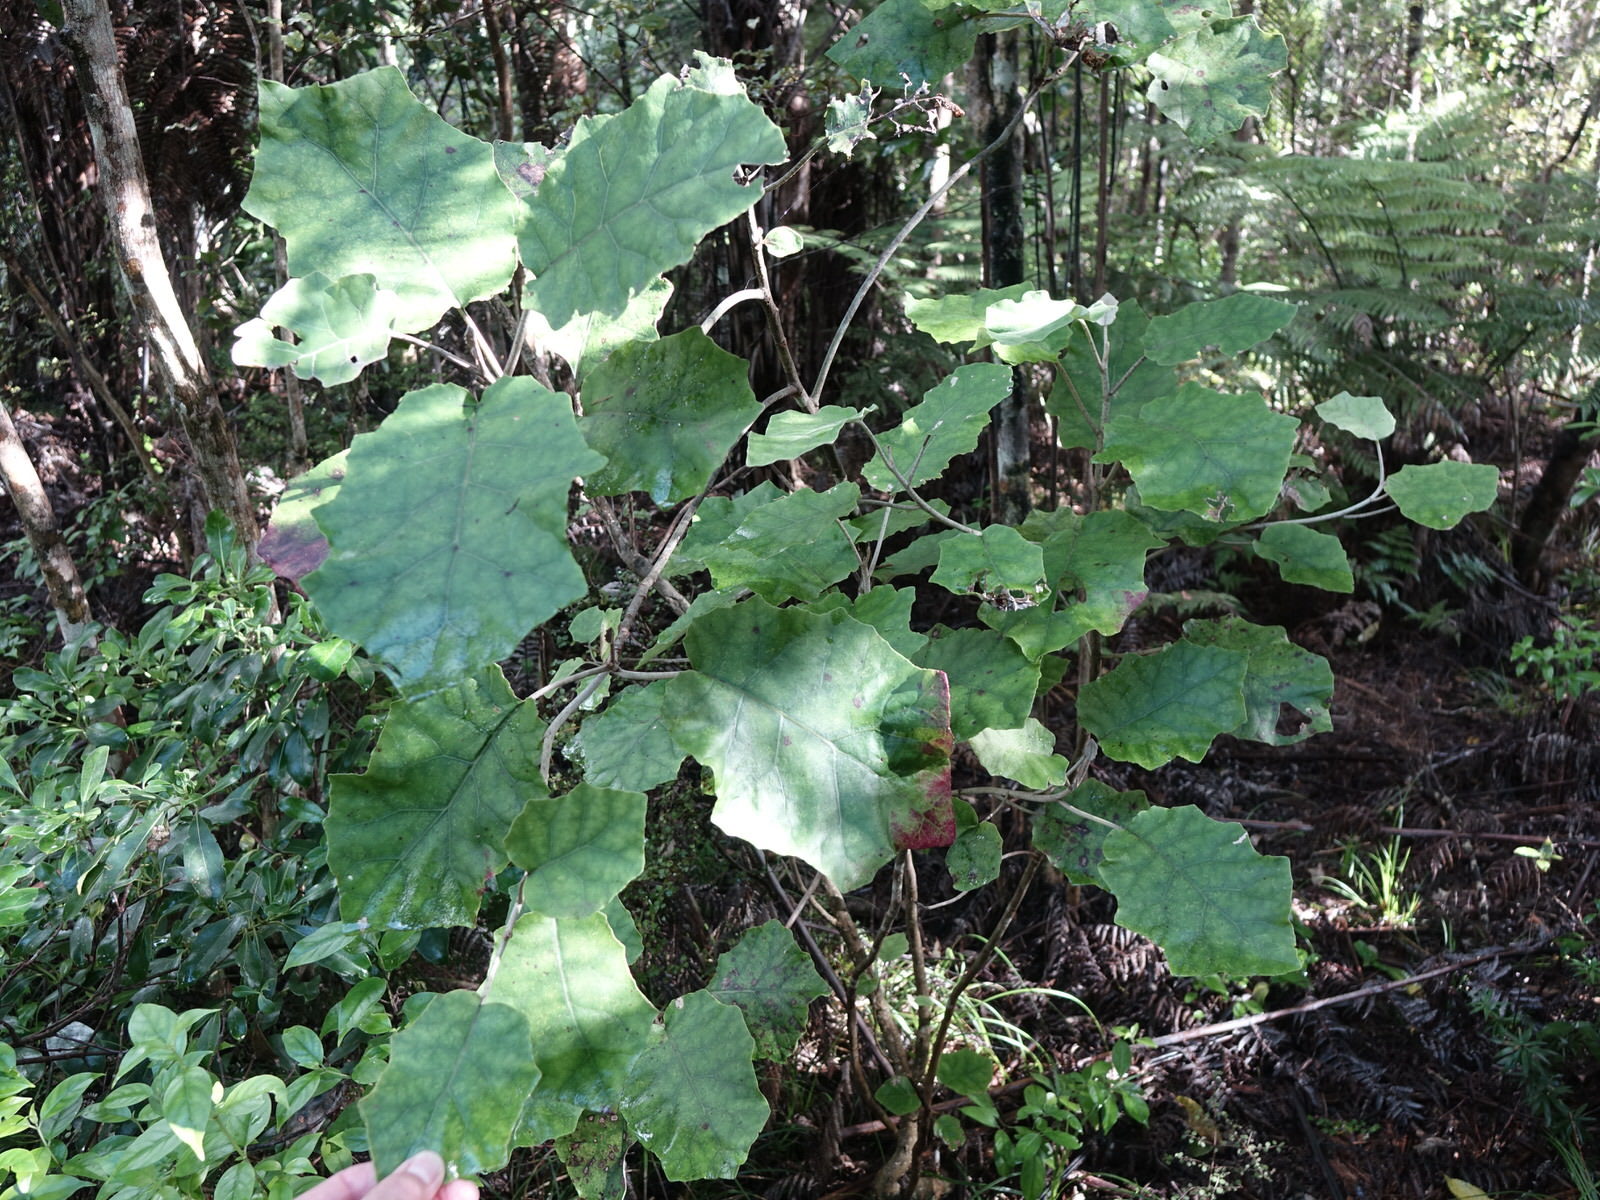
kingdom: Plantae
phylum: Tracheophyta
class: Magnoliopsida
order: Asterales
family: Asteraceae
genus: Brachyglottis
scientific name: Brachyglottis repanda
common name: Hedge ragwort
